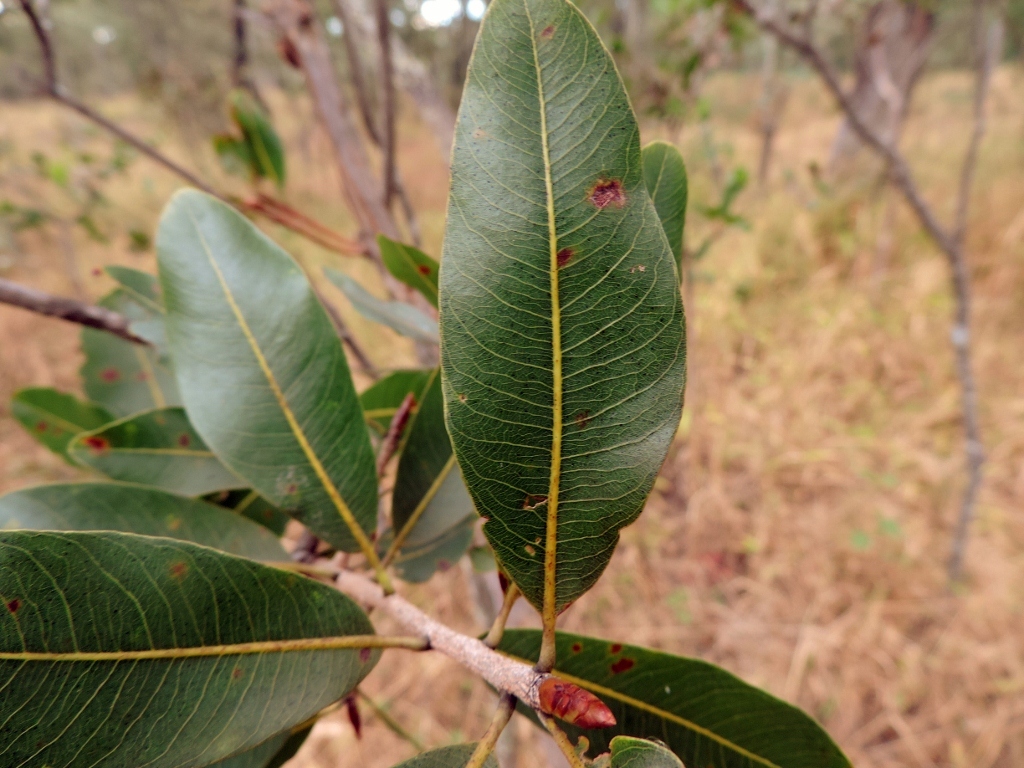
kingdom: Plantae
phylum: Tracheophyta
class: Magnoliopsida
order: Malpighiales
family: Ochnaceae
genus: Ochna
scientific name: Ochna pulchra
